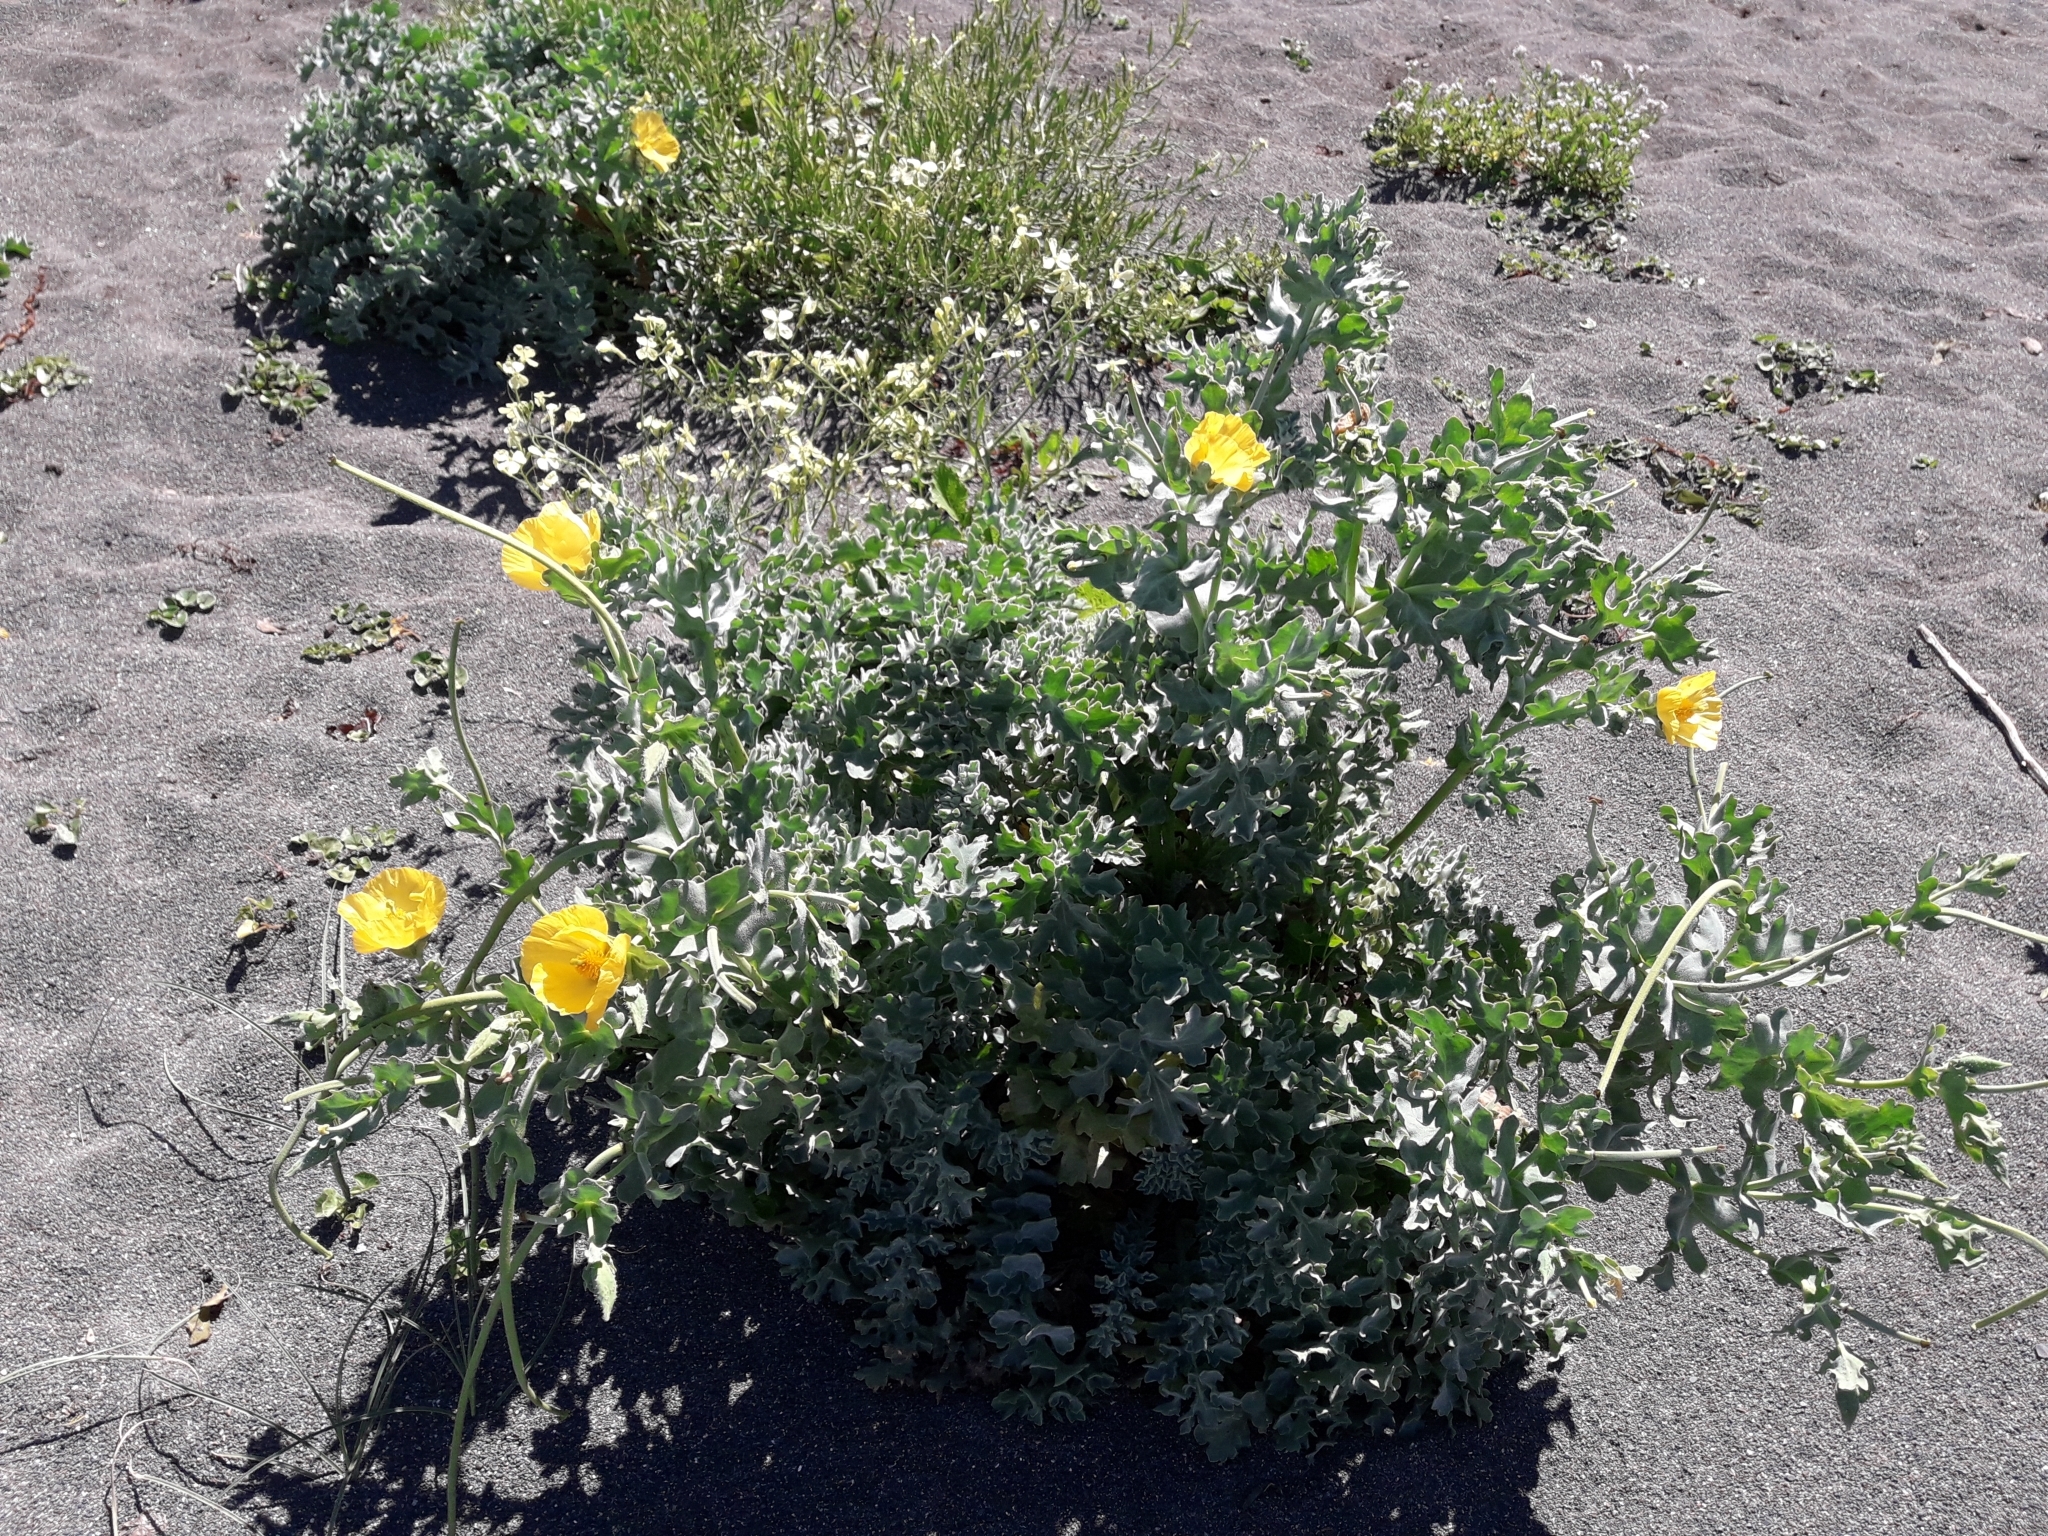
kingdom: Plantae
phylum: Tracheophyta
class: Magnoliopsida
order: Ranunculales
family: Papaveraceae
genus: Glaucium
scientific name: Glaucium flavum
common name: Yellow horned-poppy
